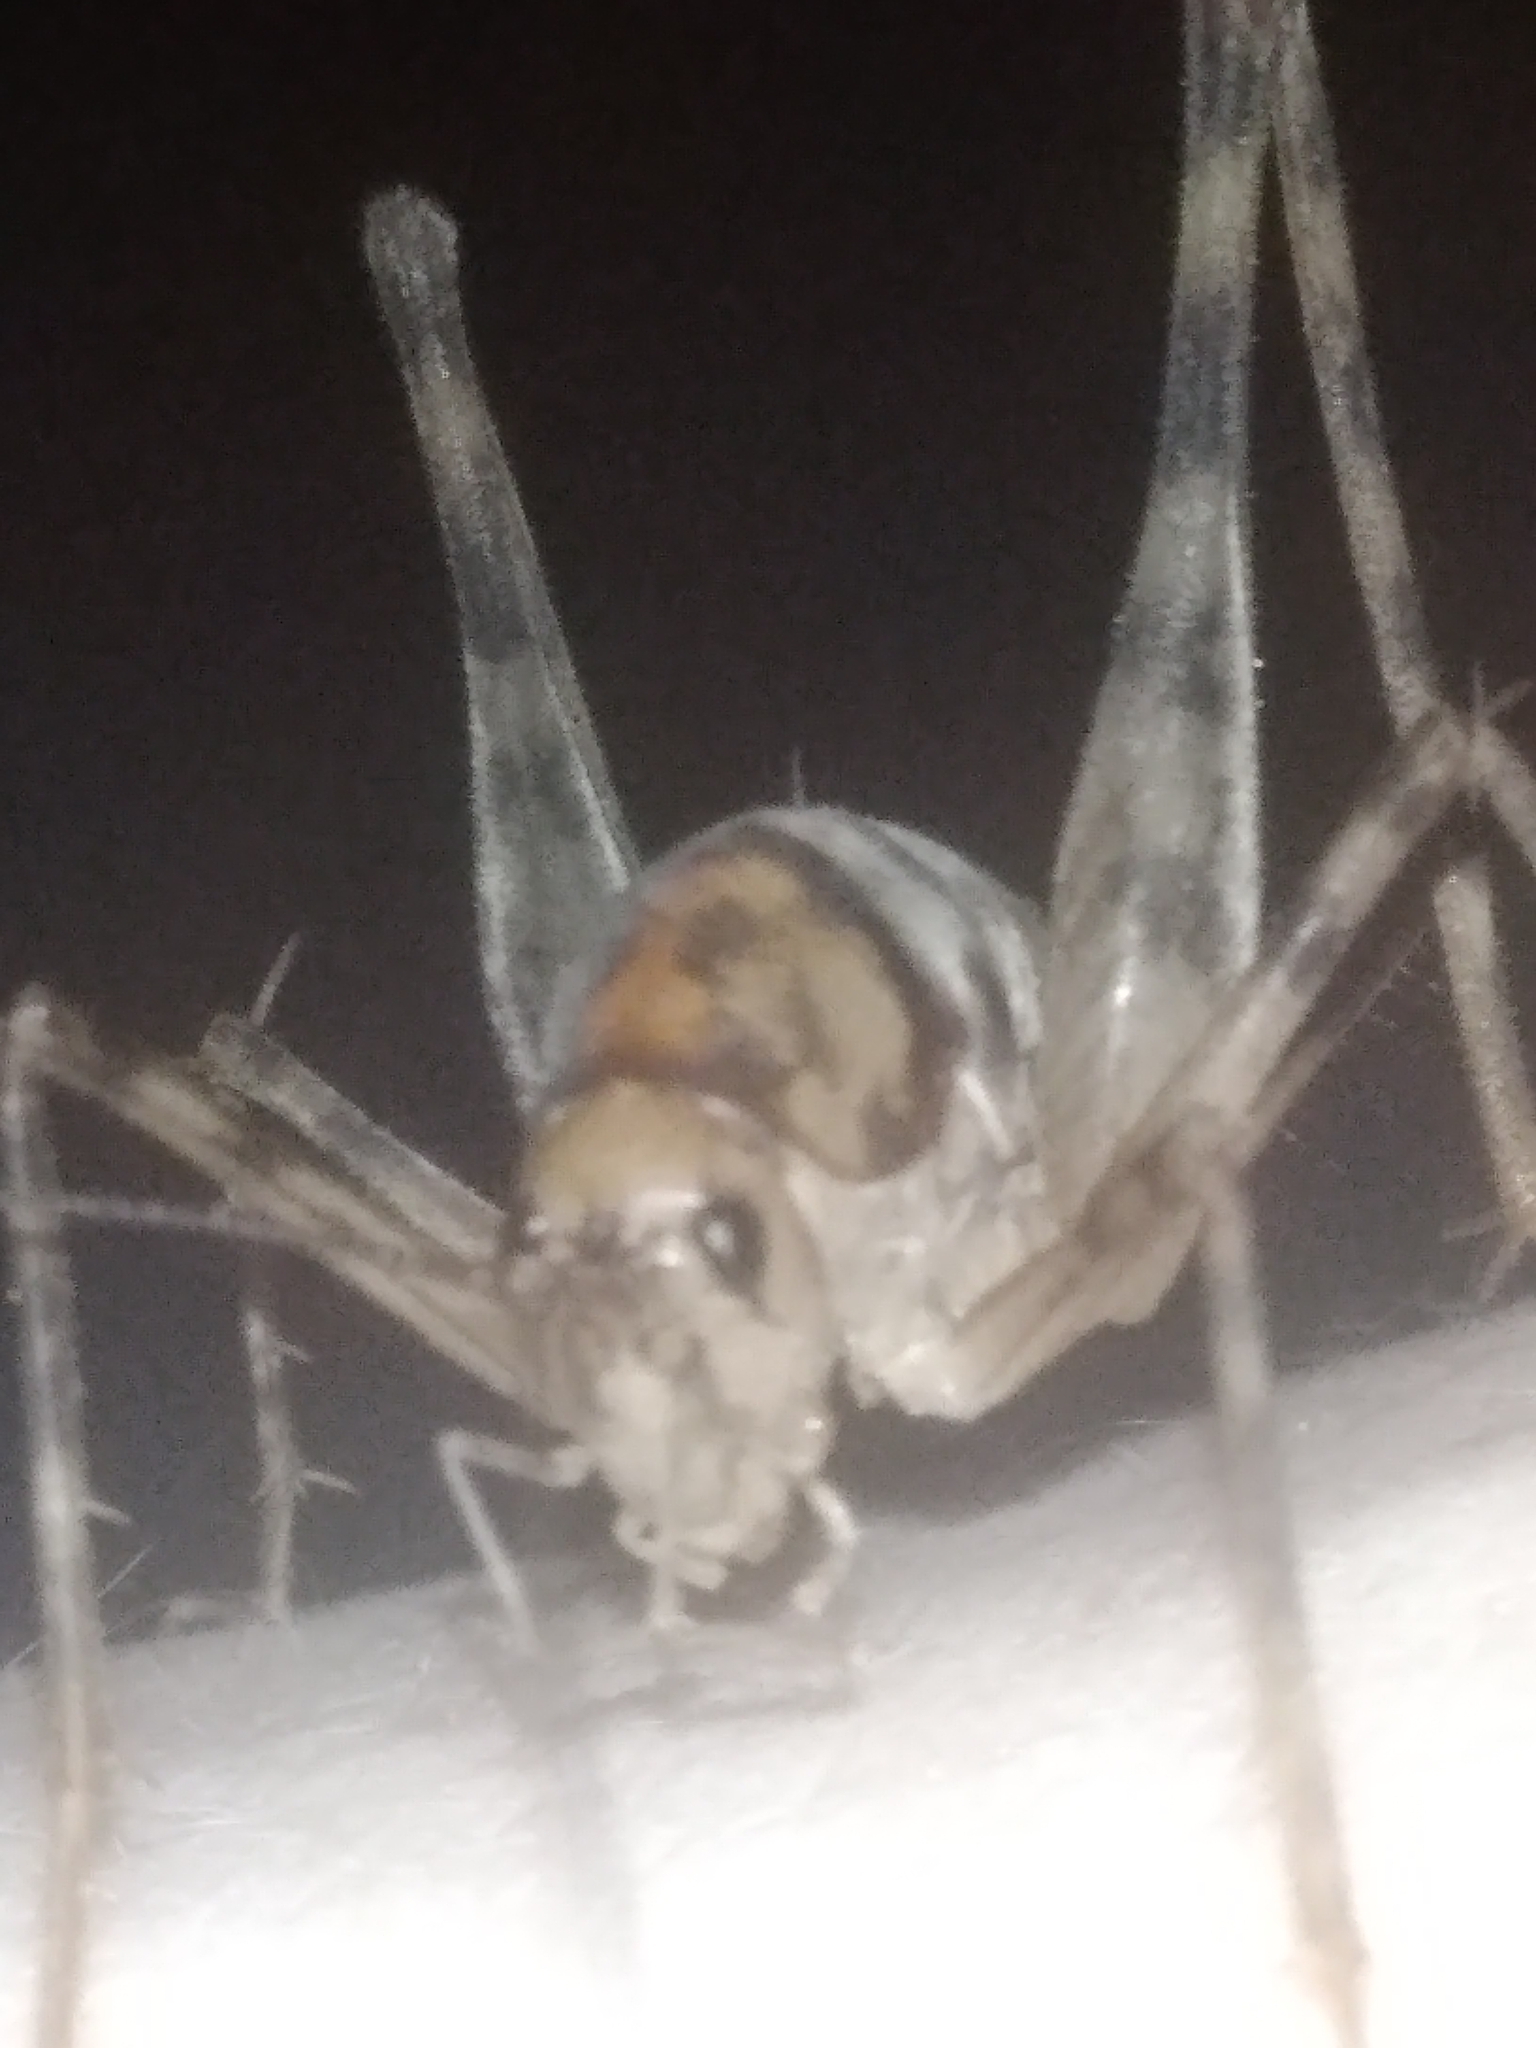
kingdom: Animalia
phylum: Arthropoda
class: Insecta
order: Orthoptera
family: Rhaphidophoridae
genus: Tachycines
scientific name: Tachycines asynamorus
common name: Greenhouse camel cricket
